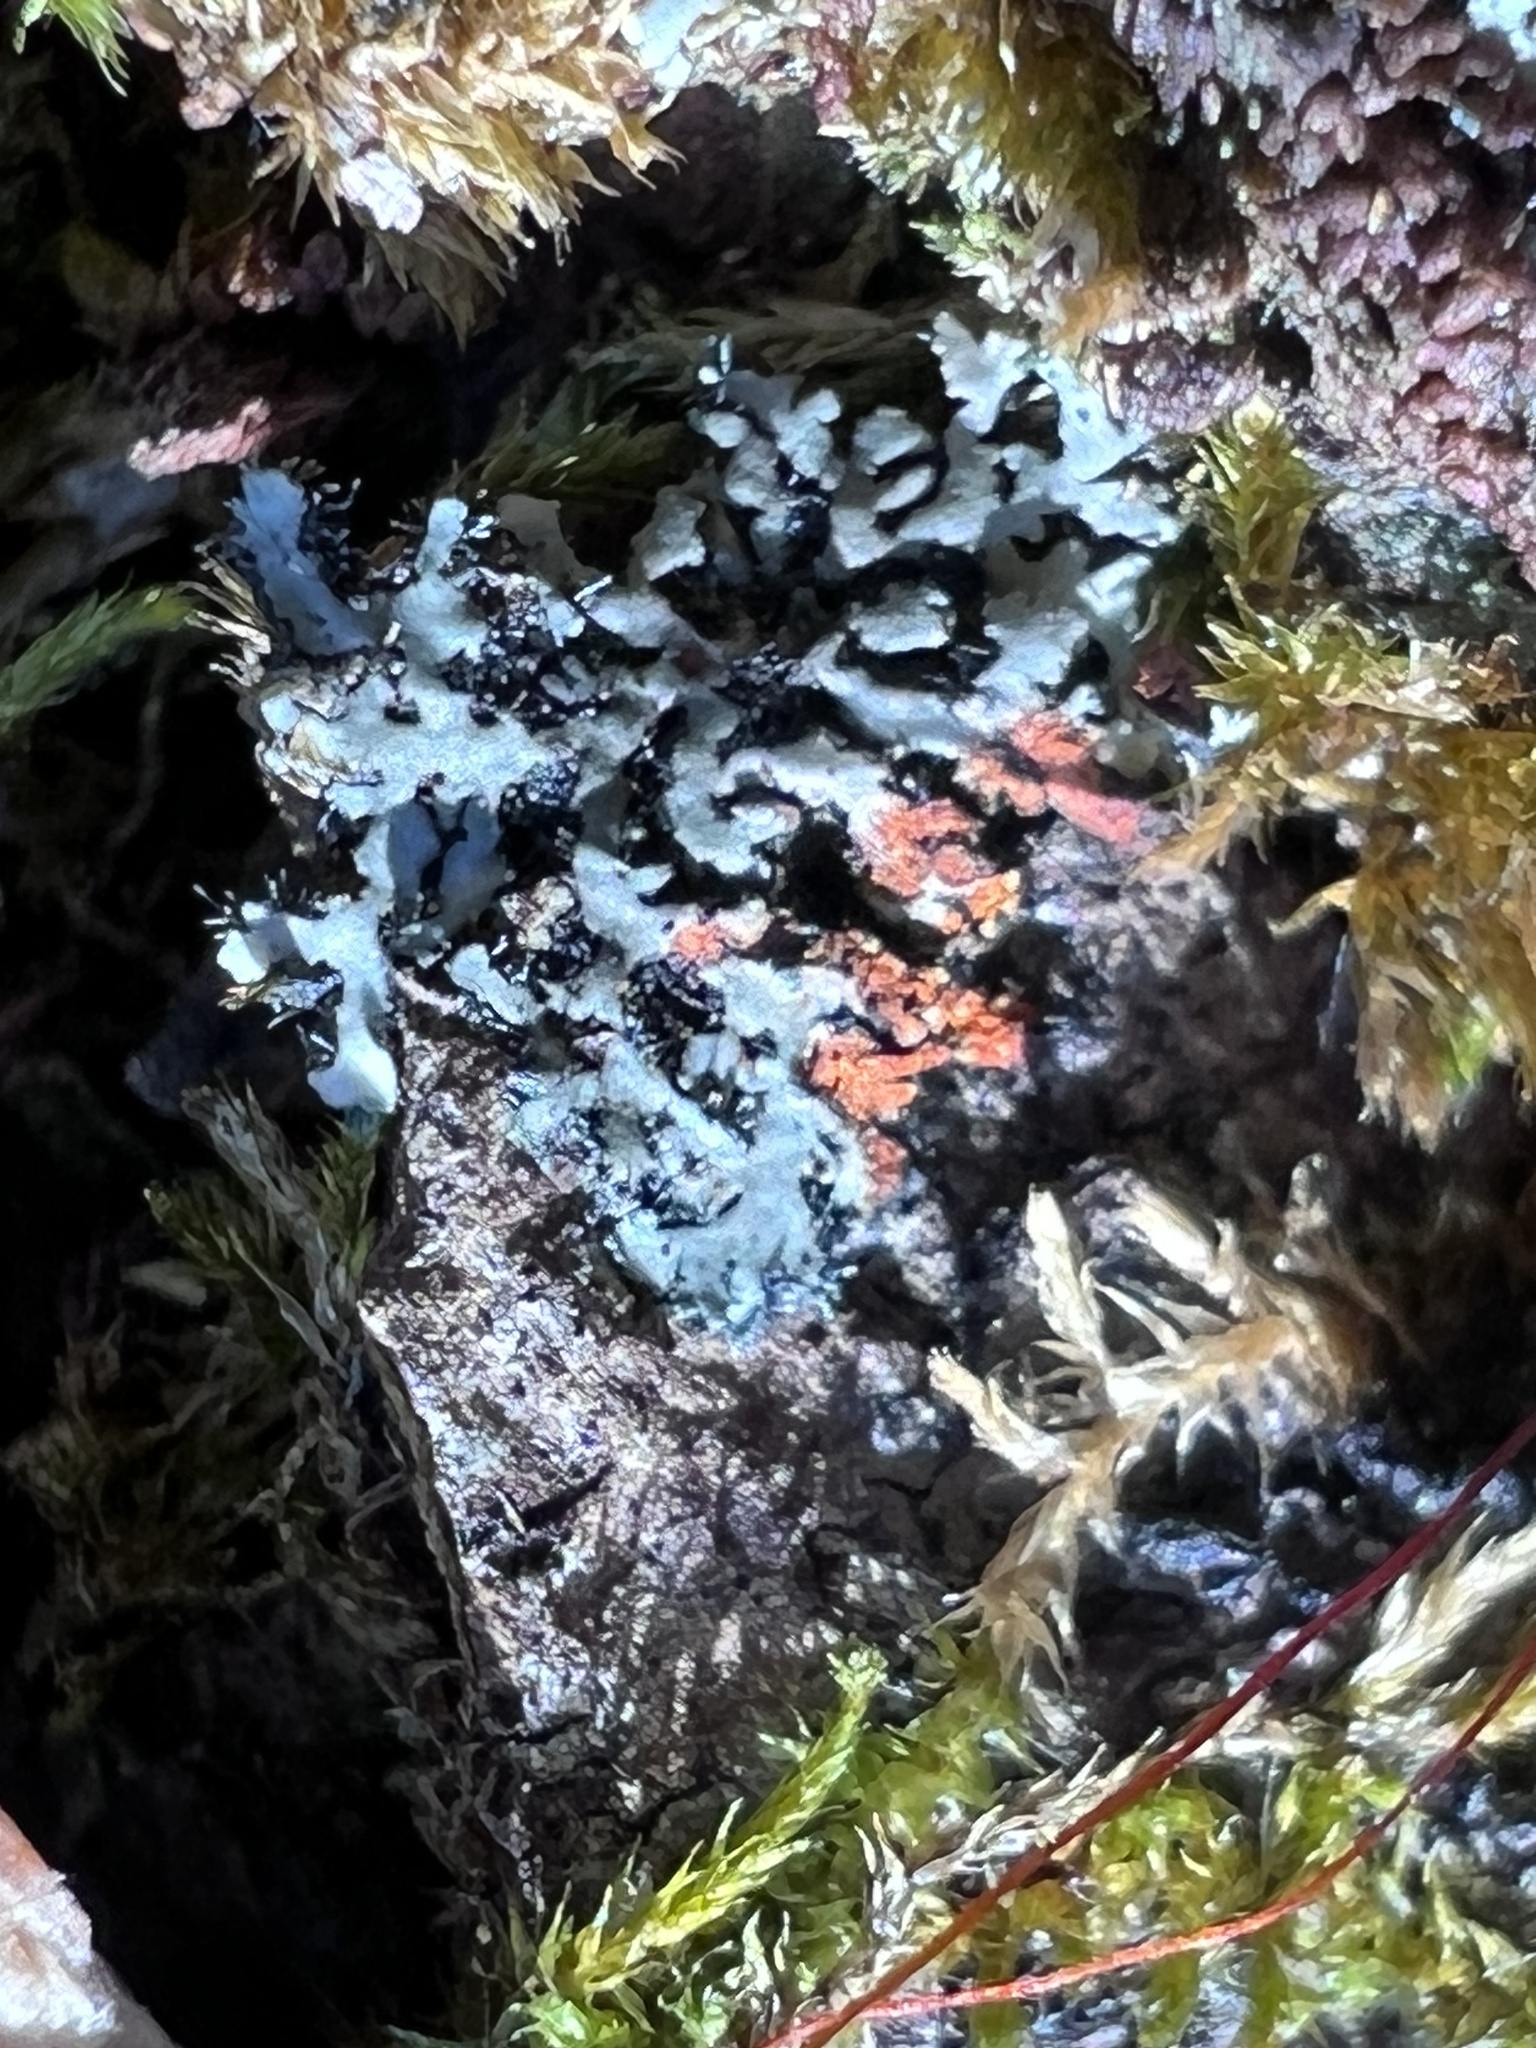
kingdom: Fungi
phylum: Ascomycota
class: Lecanoromycetes
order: Caliciales
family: Physciaceae
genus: Phaeophyscia
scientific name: Phaeophyscia rubropulchra
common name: Orange-cored shadow lichen
